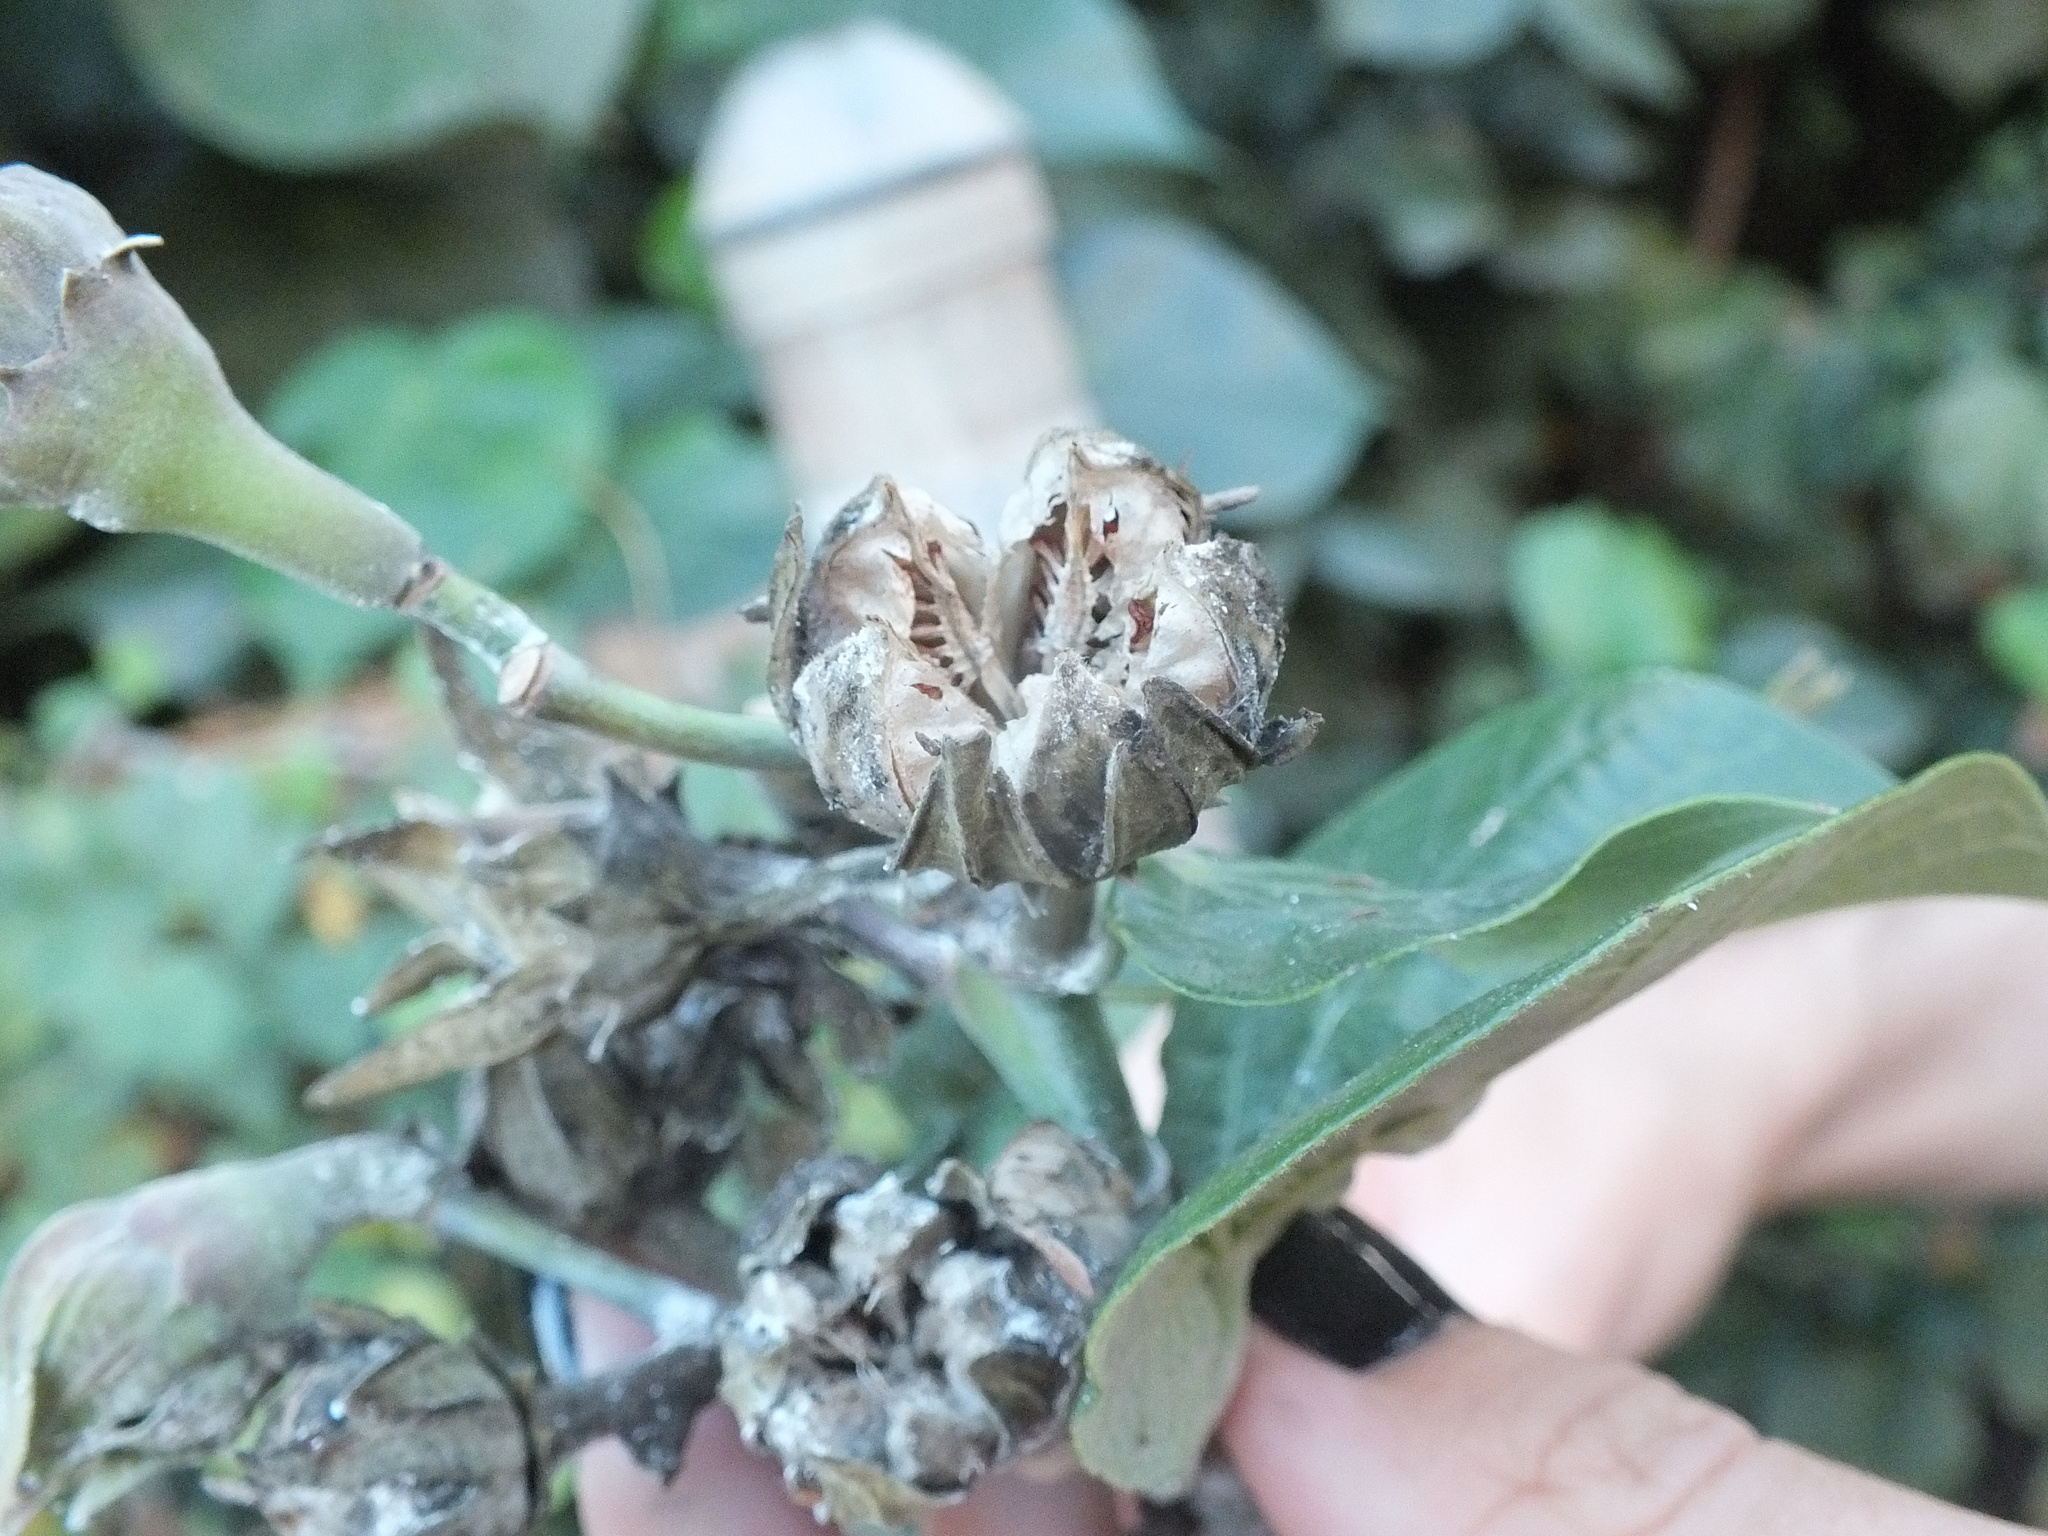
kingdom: Plantae
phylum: Tracheophyta
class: Magnoliopsida
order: Malvales
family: Malvaceae
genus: Talipariti
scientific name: Talipariti tiliaceum
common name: Sea hibiscus
